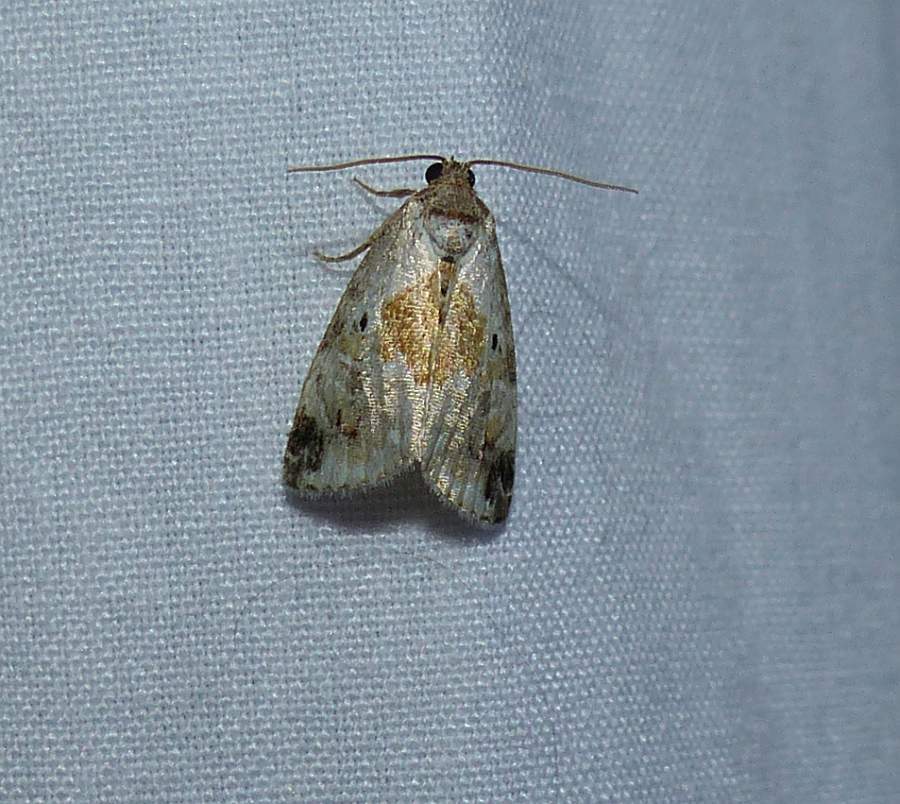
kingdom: Animalia
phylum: Arthropoda
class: Insecta
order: Lepidoptera
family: Noctuidae
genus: Maliattha
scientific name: Maliattha synochitis
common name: Black-dotted glyph
